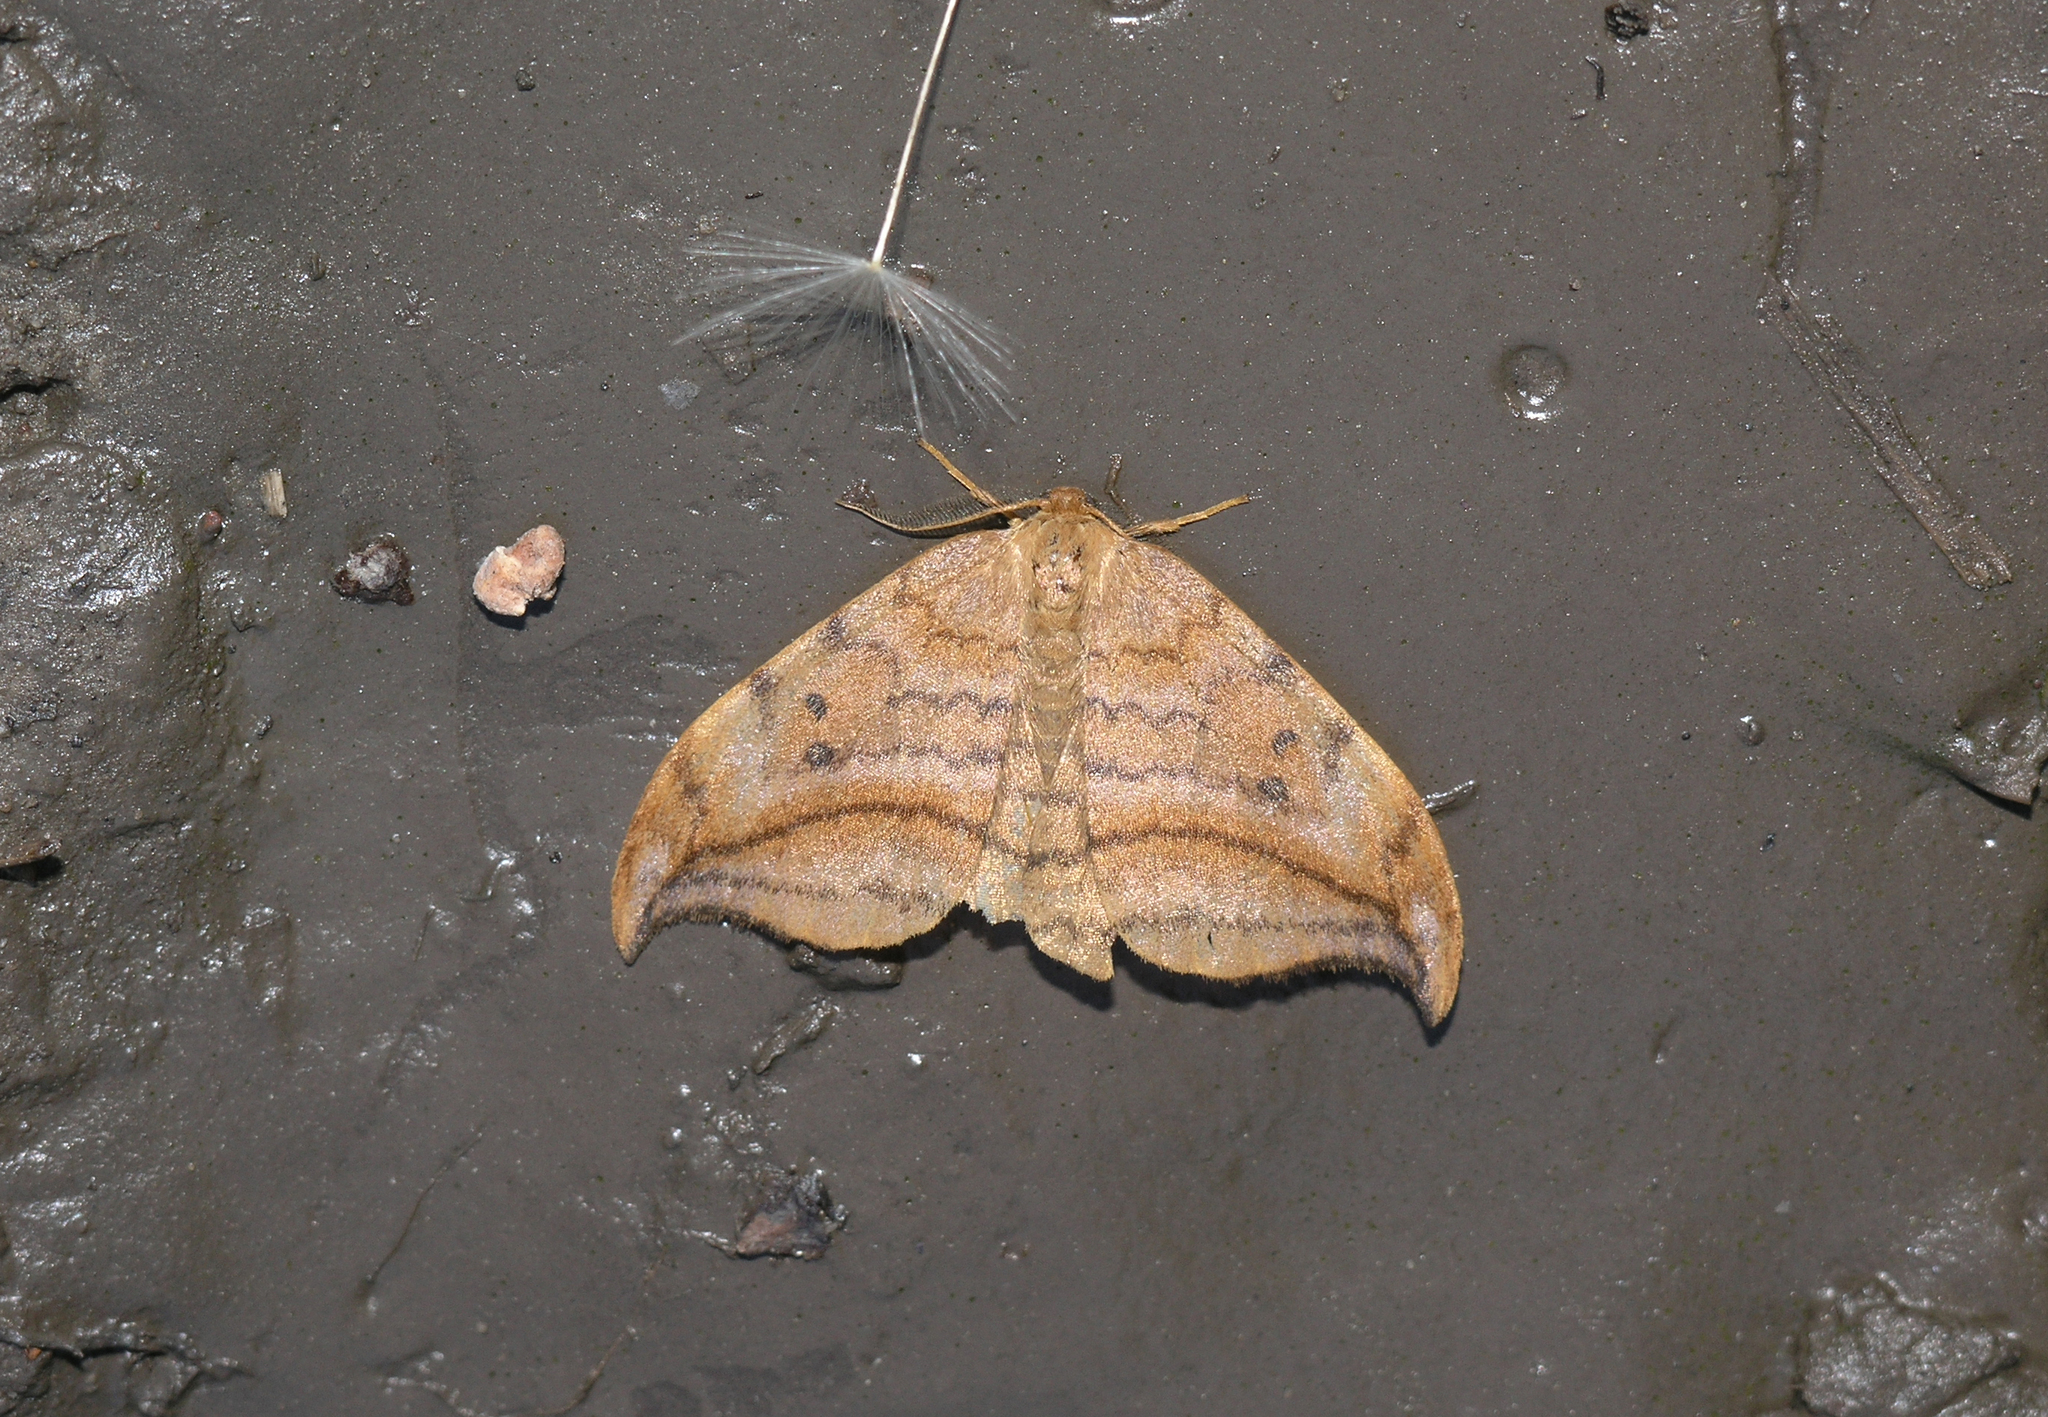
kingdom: Animalia
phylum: Arthropoda
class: Insecta
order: Lepidoptera
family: Drepanidae
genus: Drepana
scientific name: Drepana curvatula
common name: Dusky hook-tip
